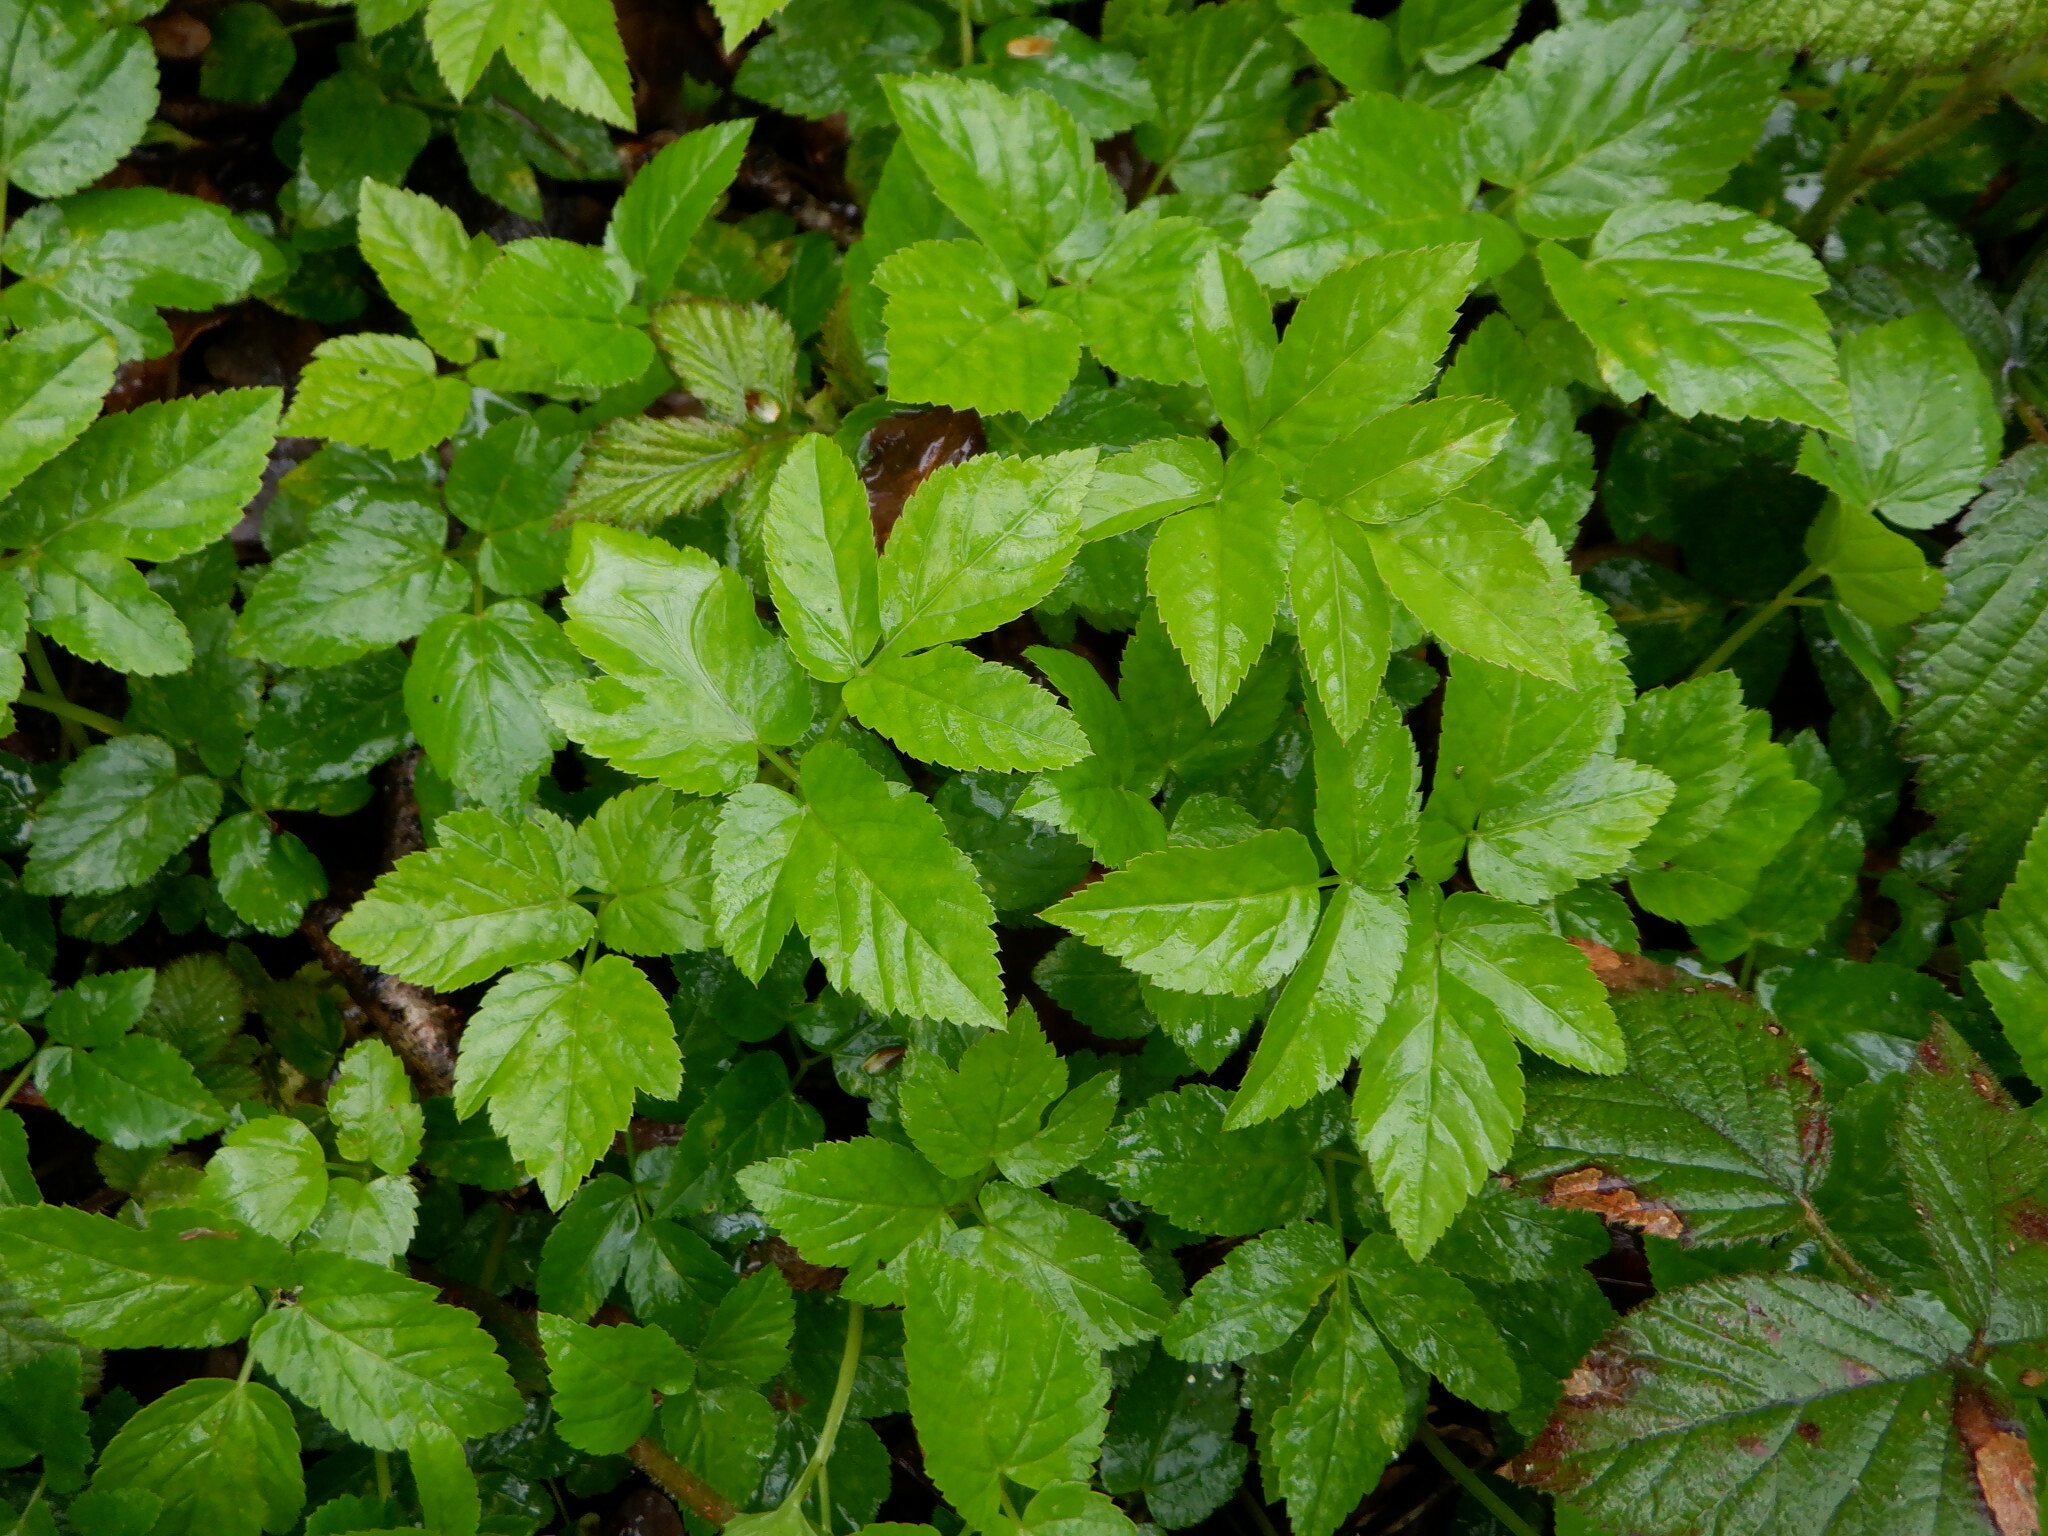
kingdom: Plantae
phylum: Tracheophyta
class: Magnoliopsida
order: Apiales
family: Apiaceae
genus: Aegopodium
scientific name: Aegopodium podagraria
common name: Ground-elder
